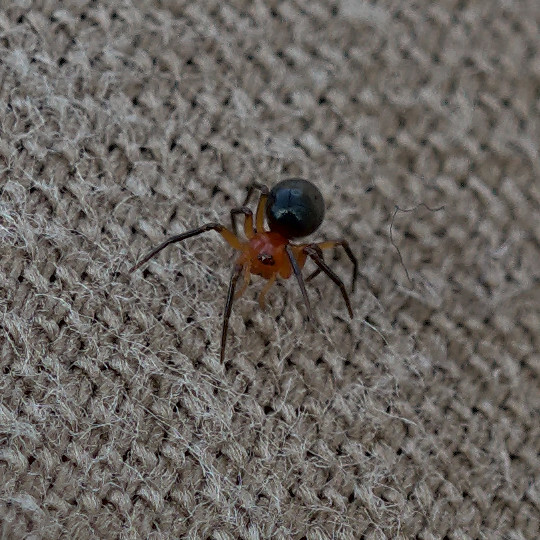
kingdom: Animalia
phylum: Arthropoda
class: Arachnida
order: Araneae
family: Linyphiidae
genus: Hypselistes
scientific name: Hypselistes florens
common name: Peatland sheetweb weaver
